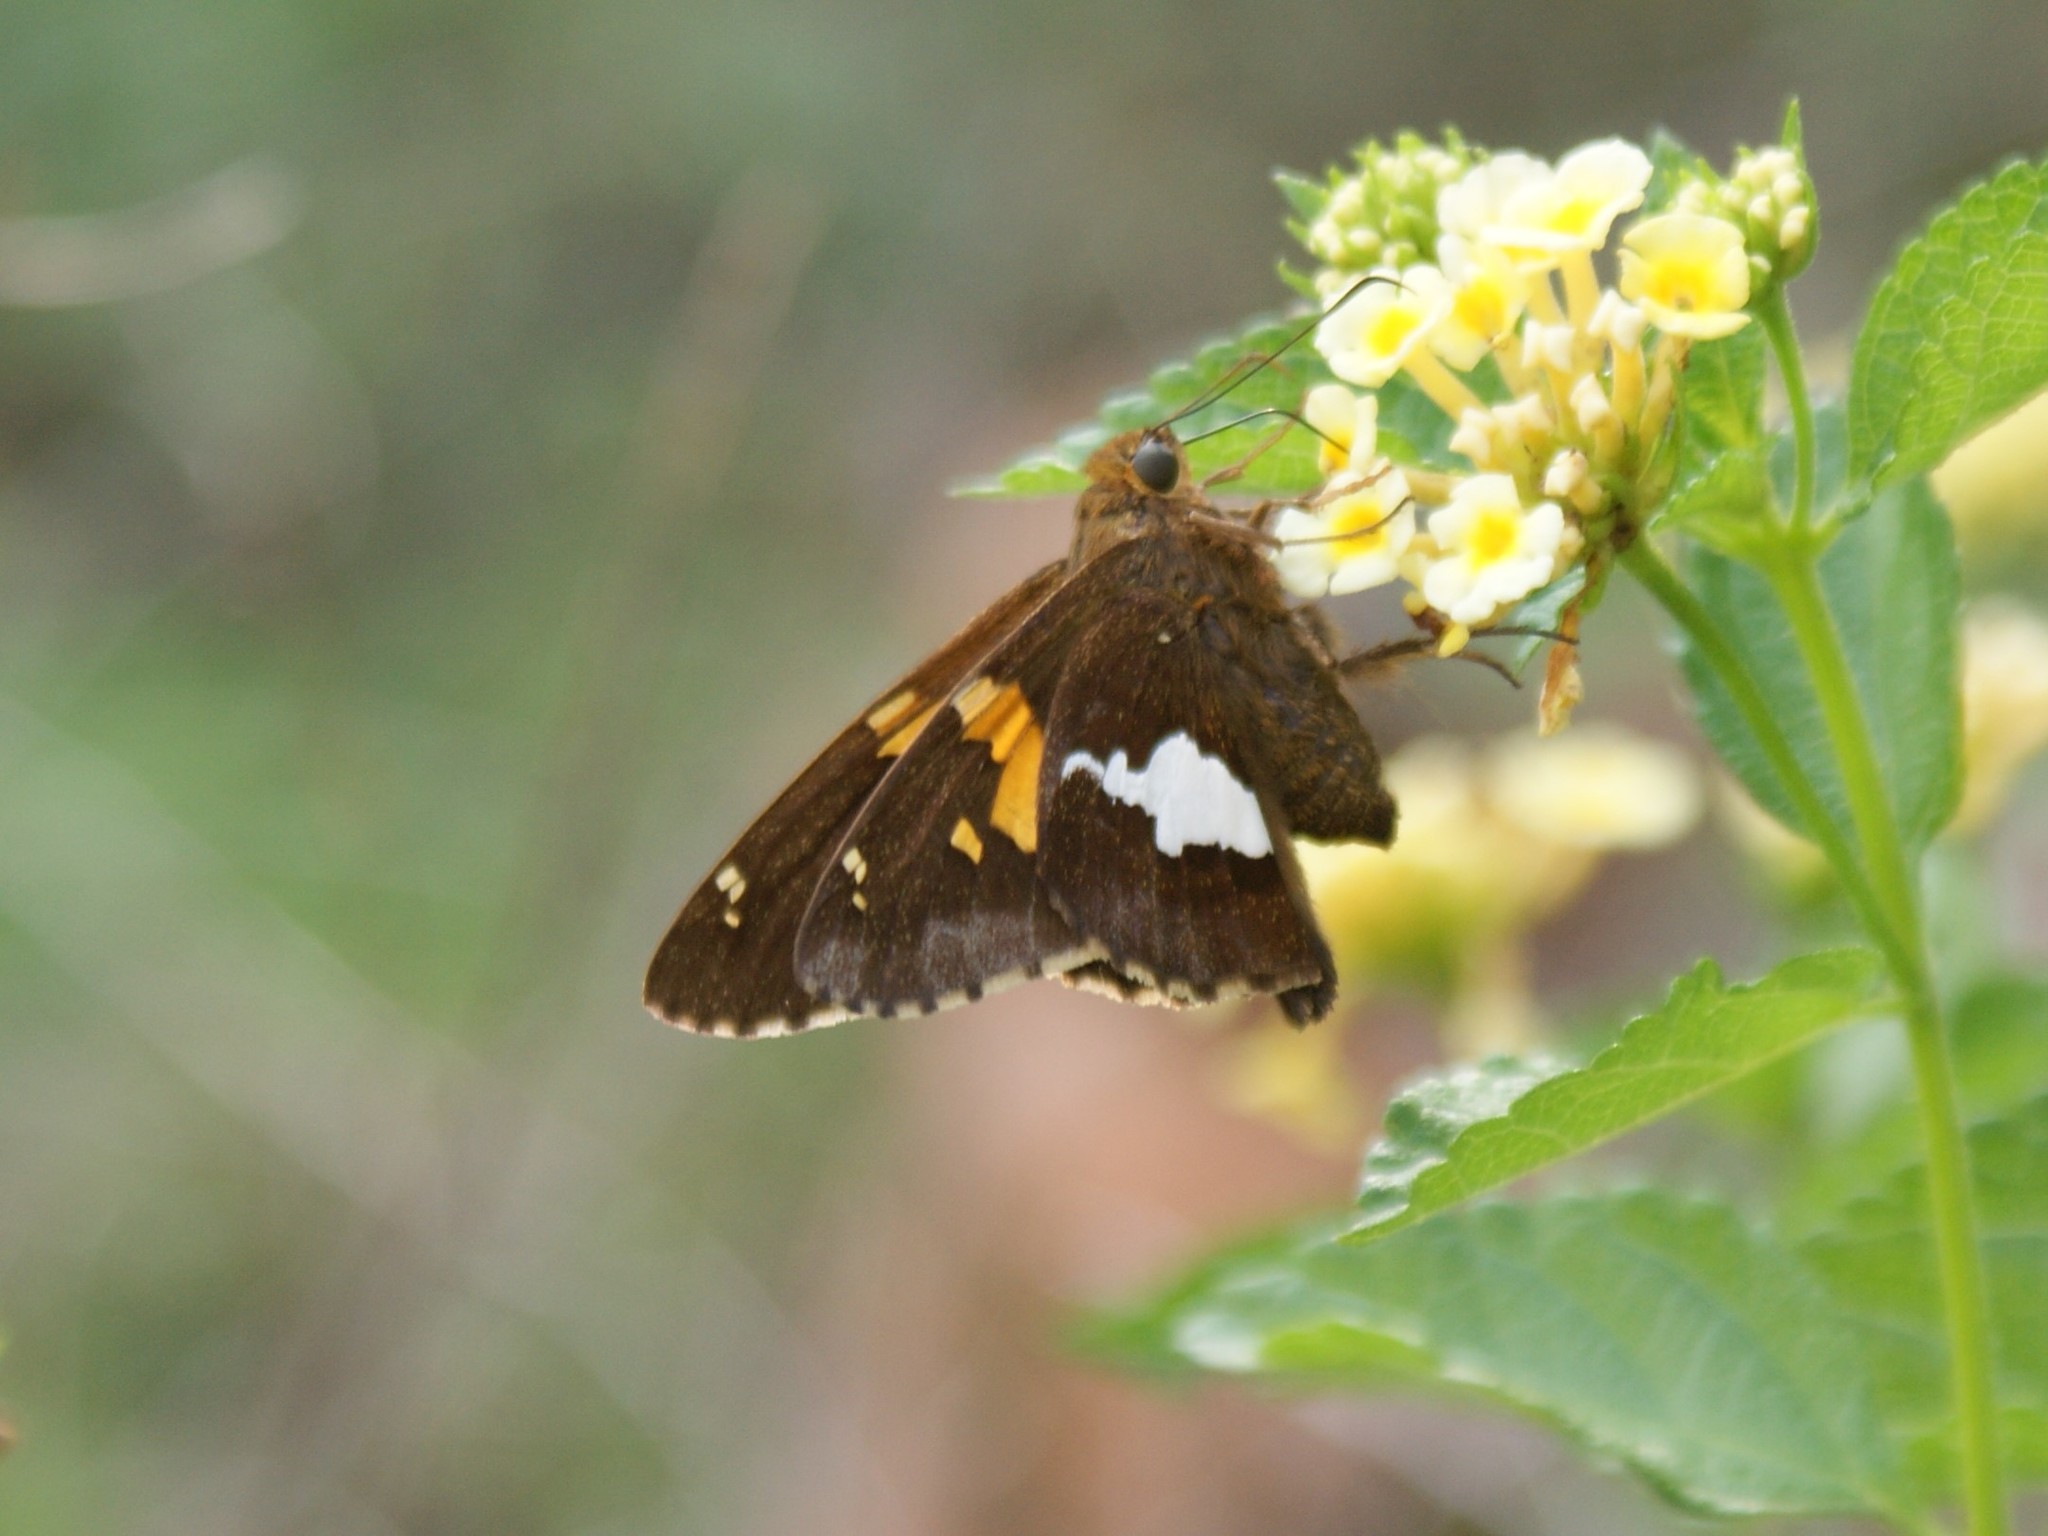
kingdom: Animalia
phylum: Arthropoda
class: Insecta
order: Lepidoptera
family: Hesperiidae
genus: Epargyreus
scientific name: Epargyreus clarus
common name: Silver-spotted skipper
